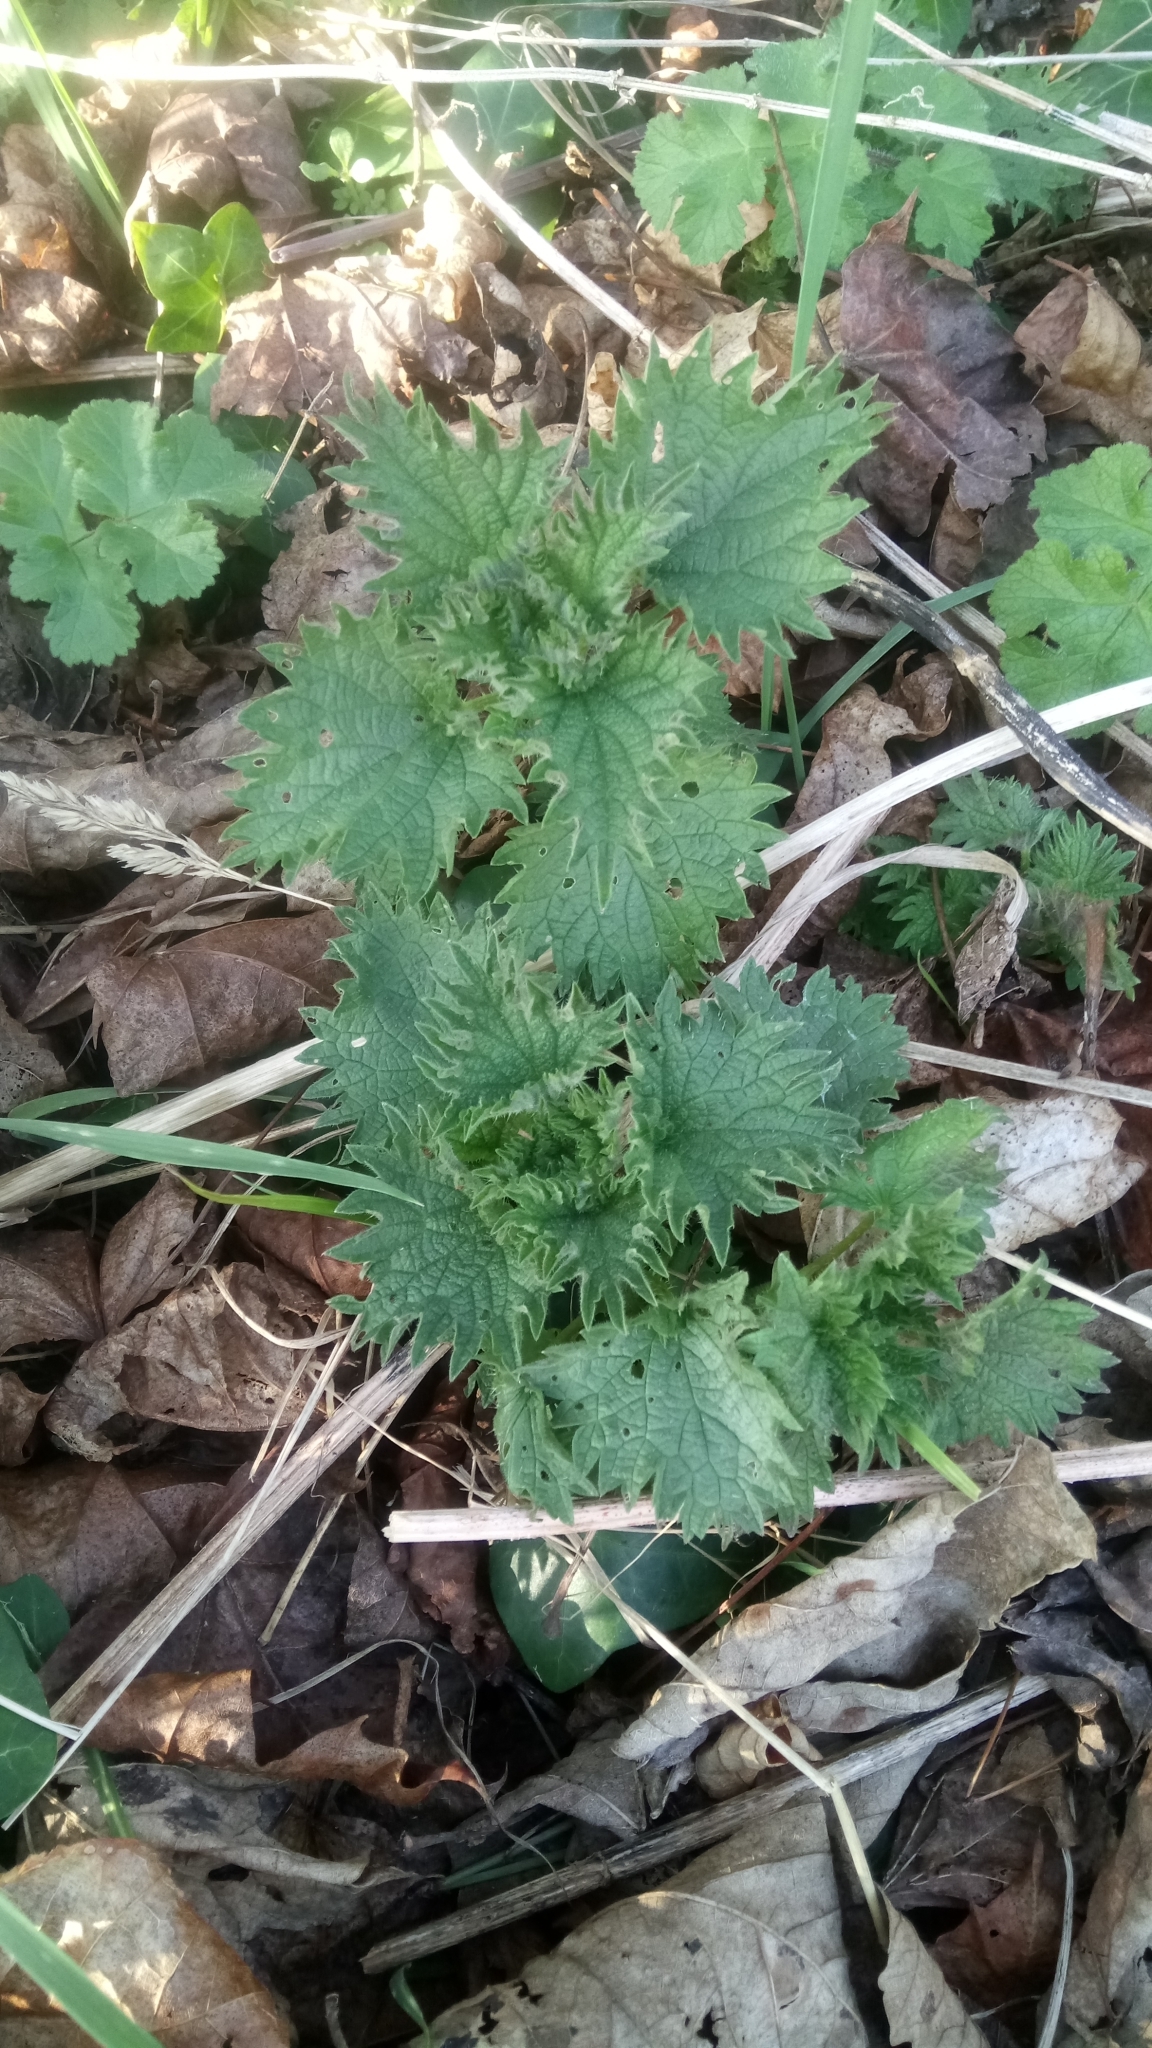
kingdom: Plantae
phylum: Tracheophyta
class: Magnoliopsida
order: Rosales
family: Urticaceae
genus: Urtica
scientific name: Urtica dioica
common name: Common nettle
